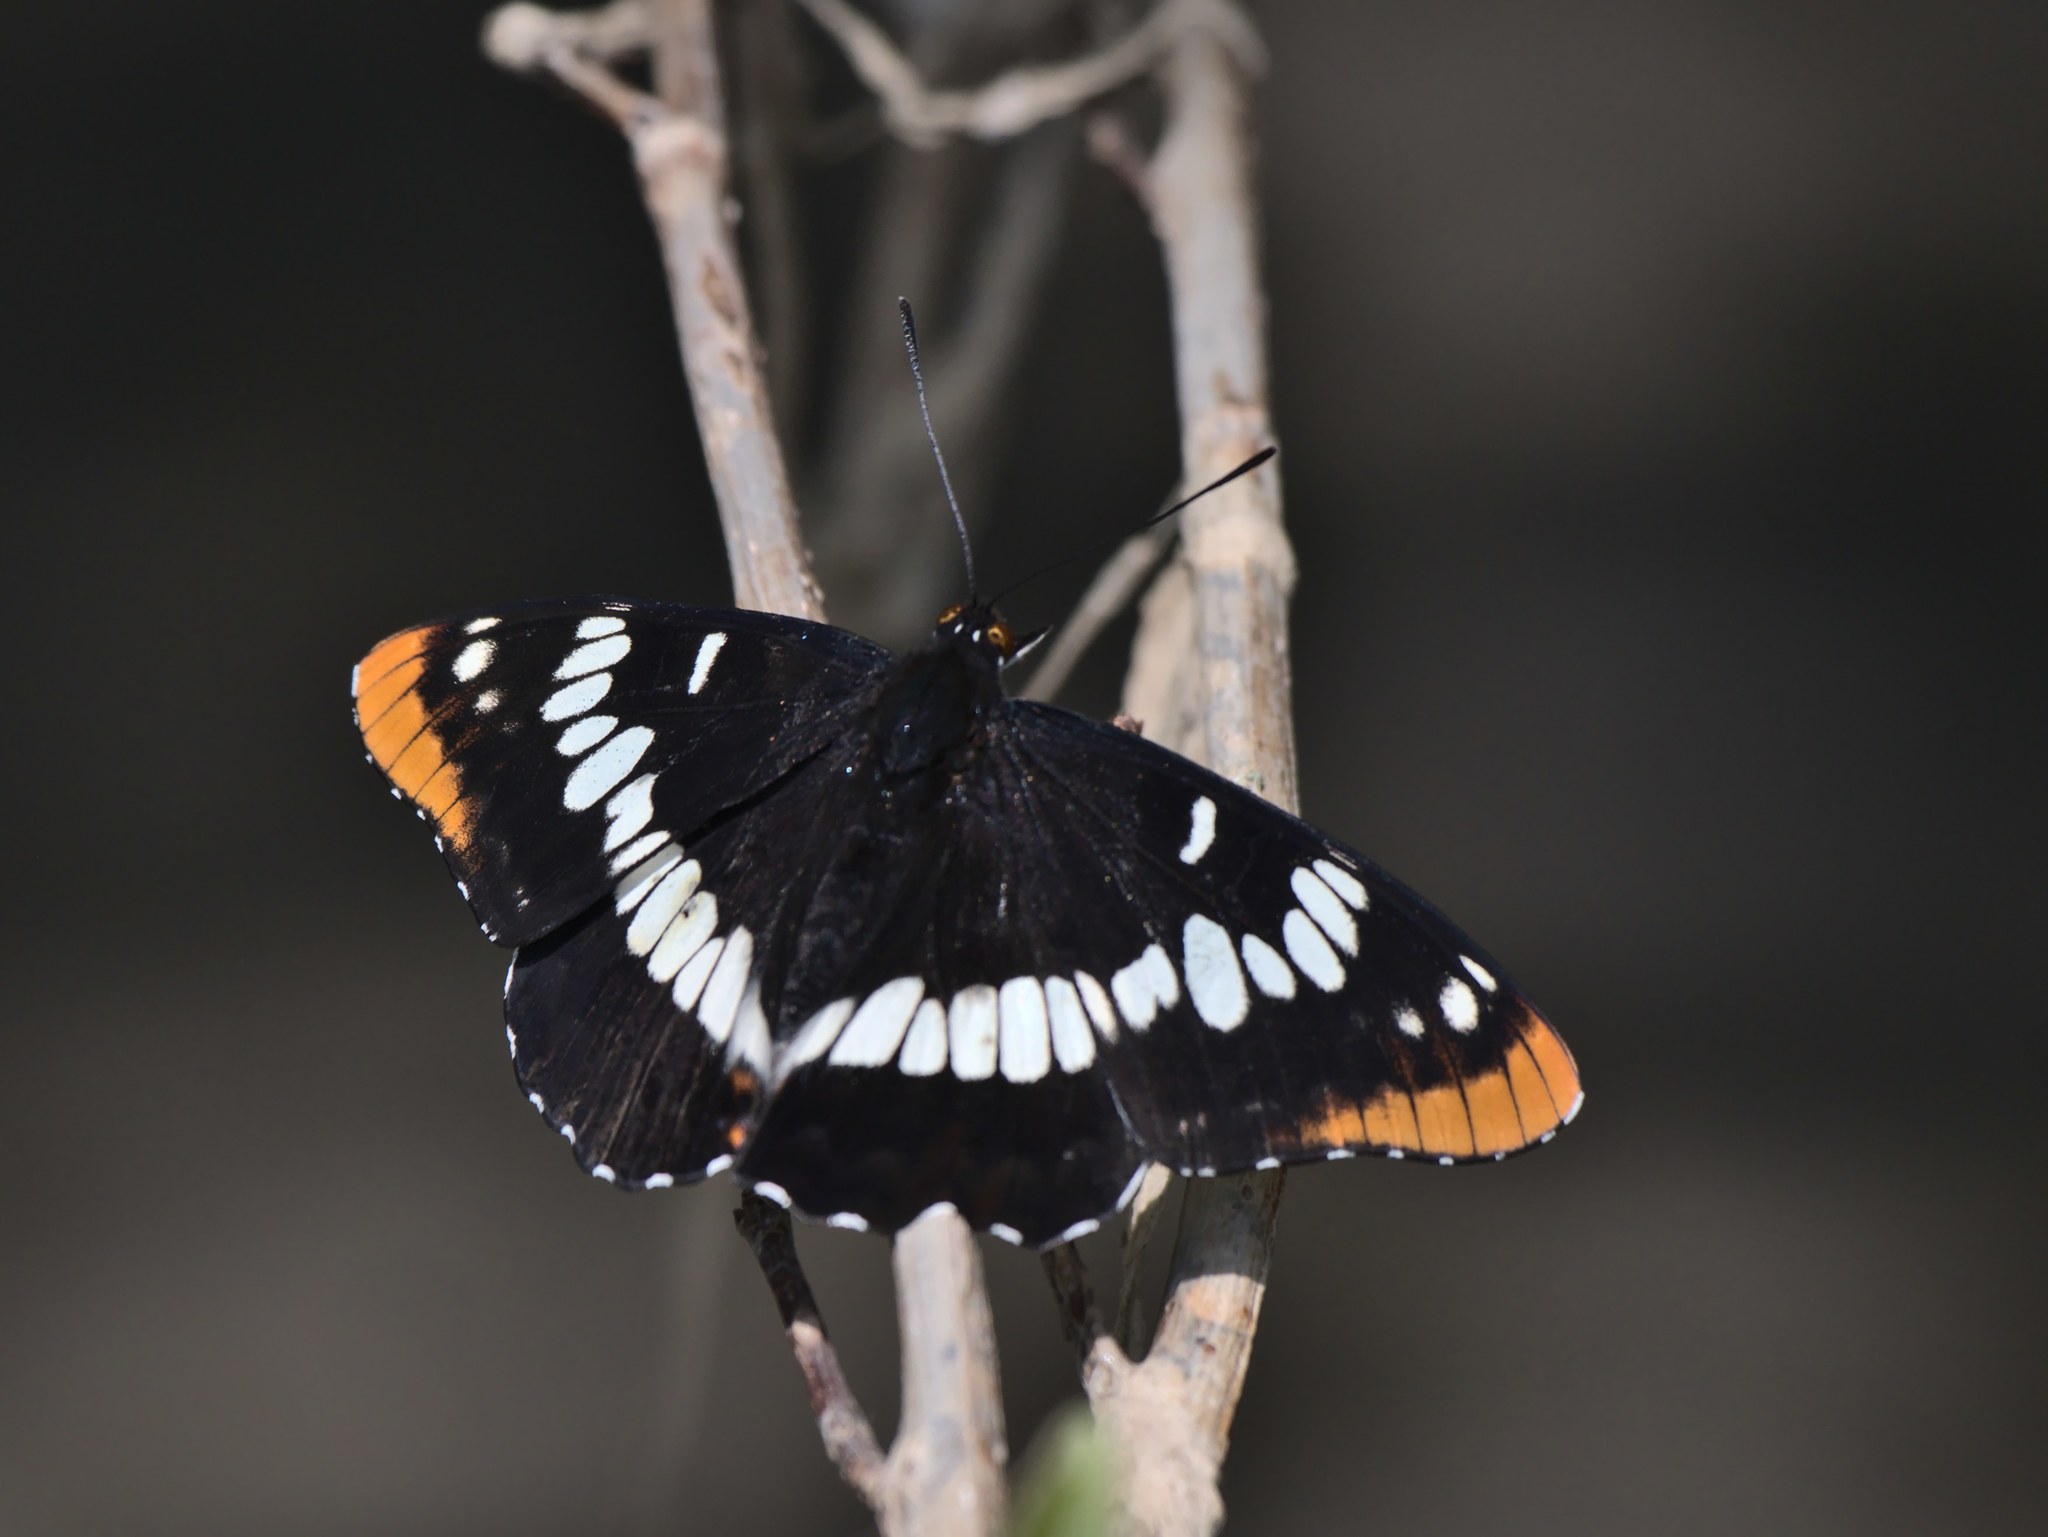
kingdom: Animalia
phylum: Arthropoda
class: Insecta
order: Lepidoptera
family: Nymphalidae
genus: Limenitis
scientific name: Limenitis lorquini
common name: Lorquin's admiral
